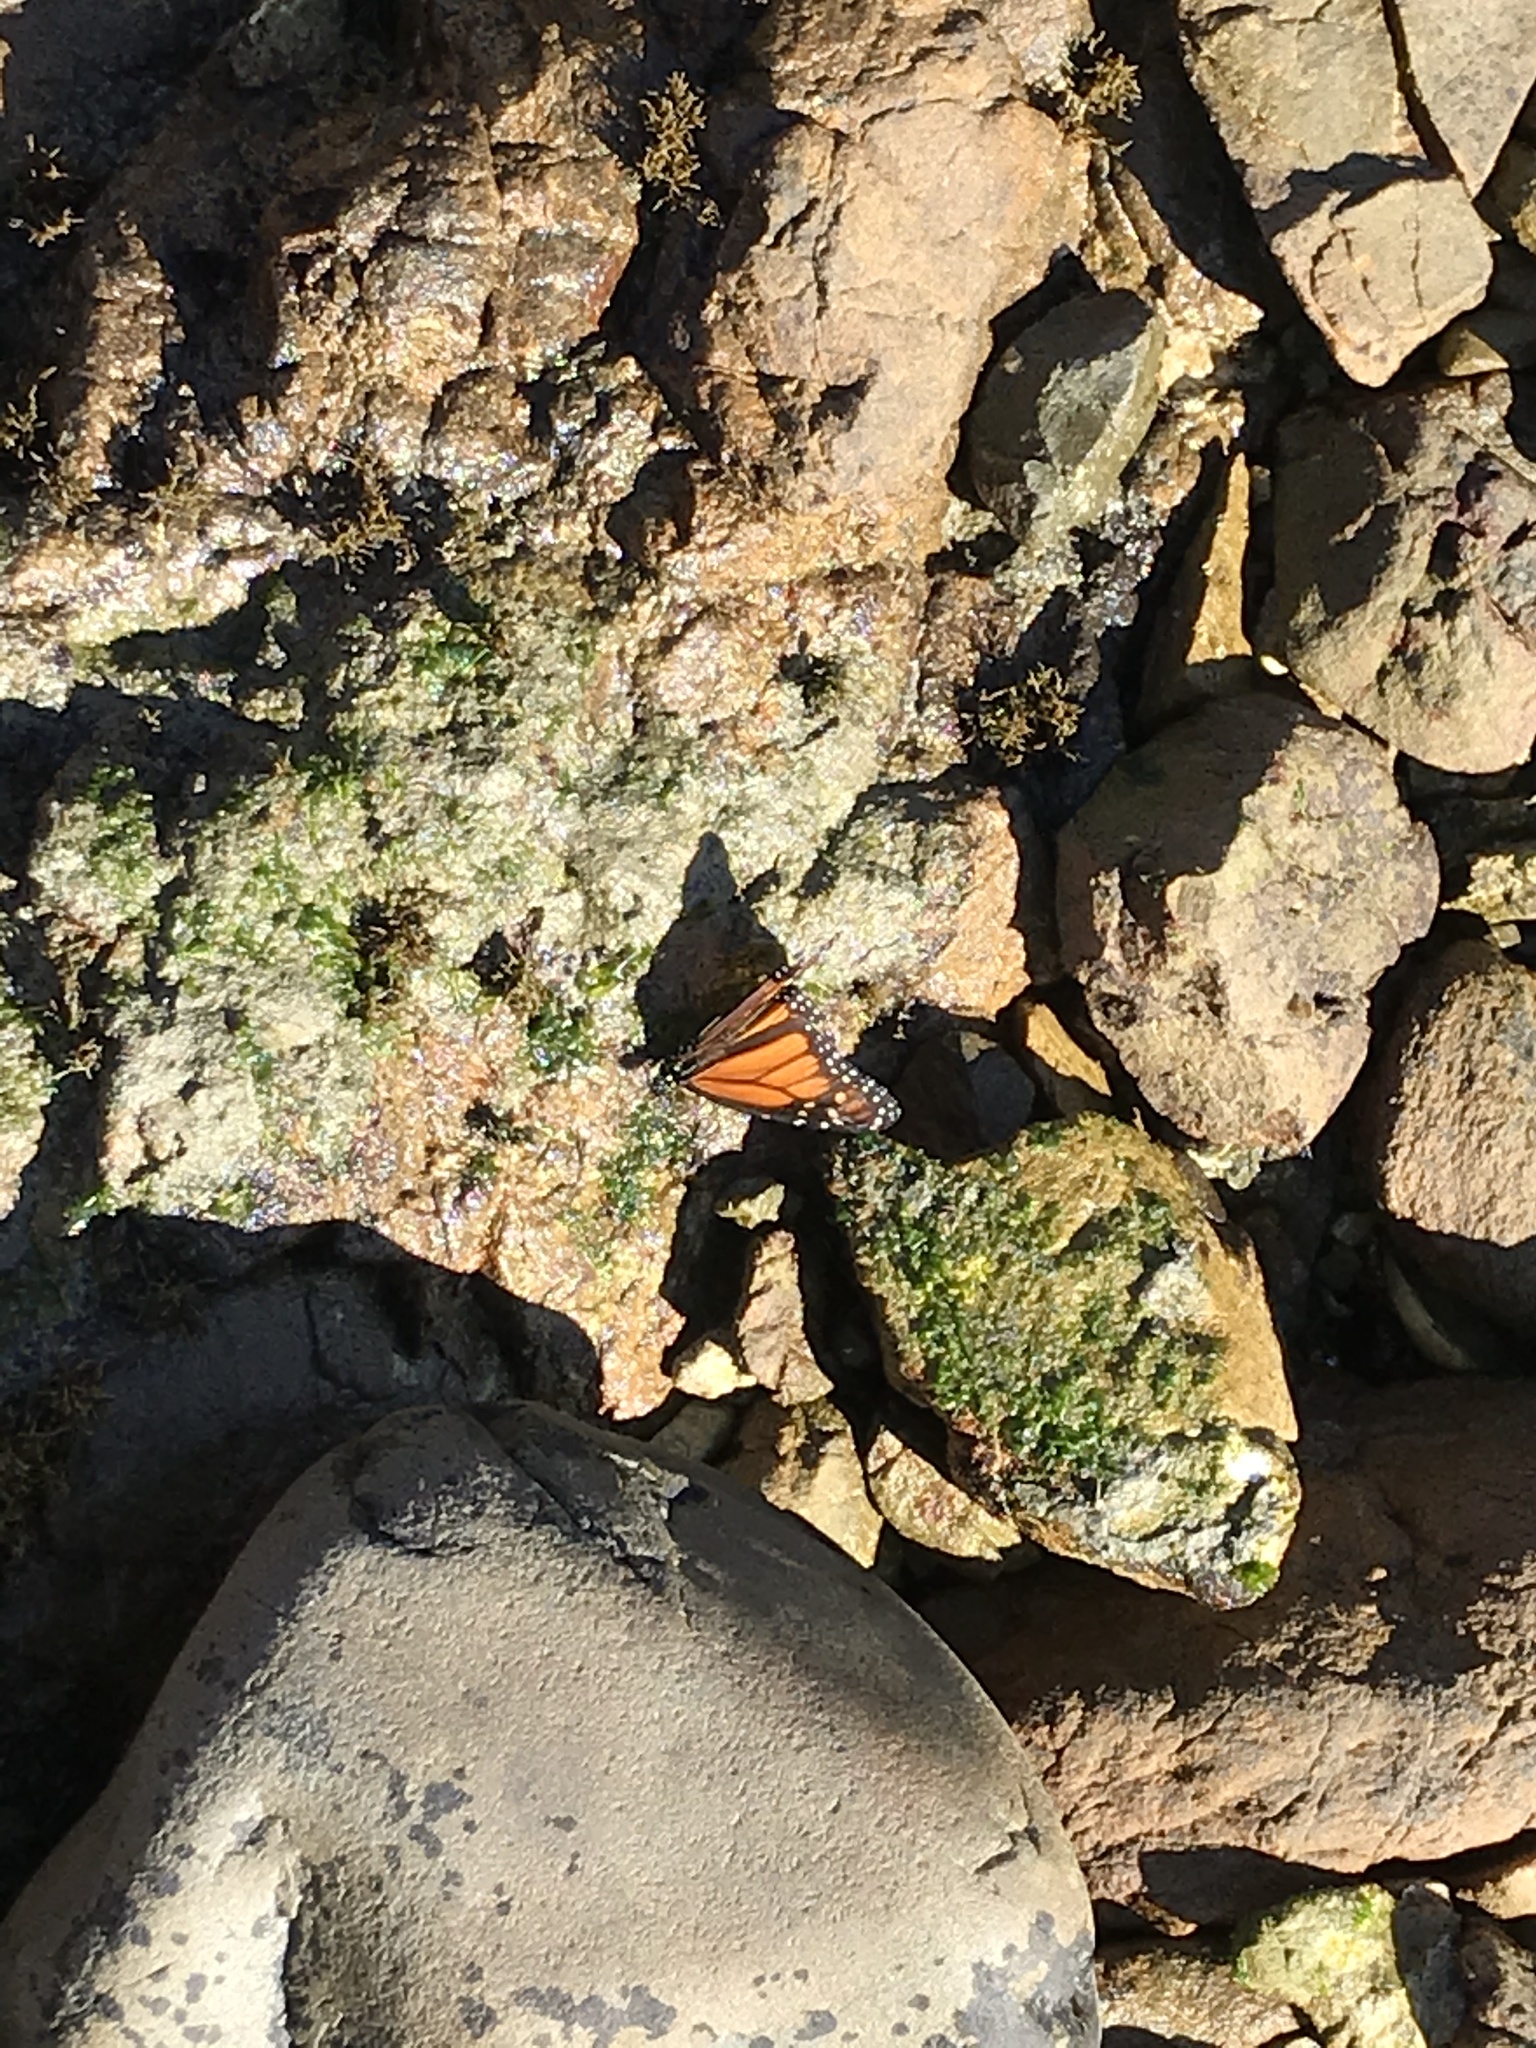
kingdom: Animalia
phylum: Arthropoda
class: Insecta
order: Lepidoptera
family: Nymphalidae
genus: Danaus
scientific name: Danaus plexippus
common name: Monarch
